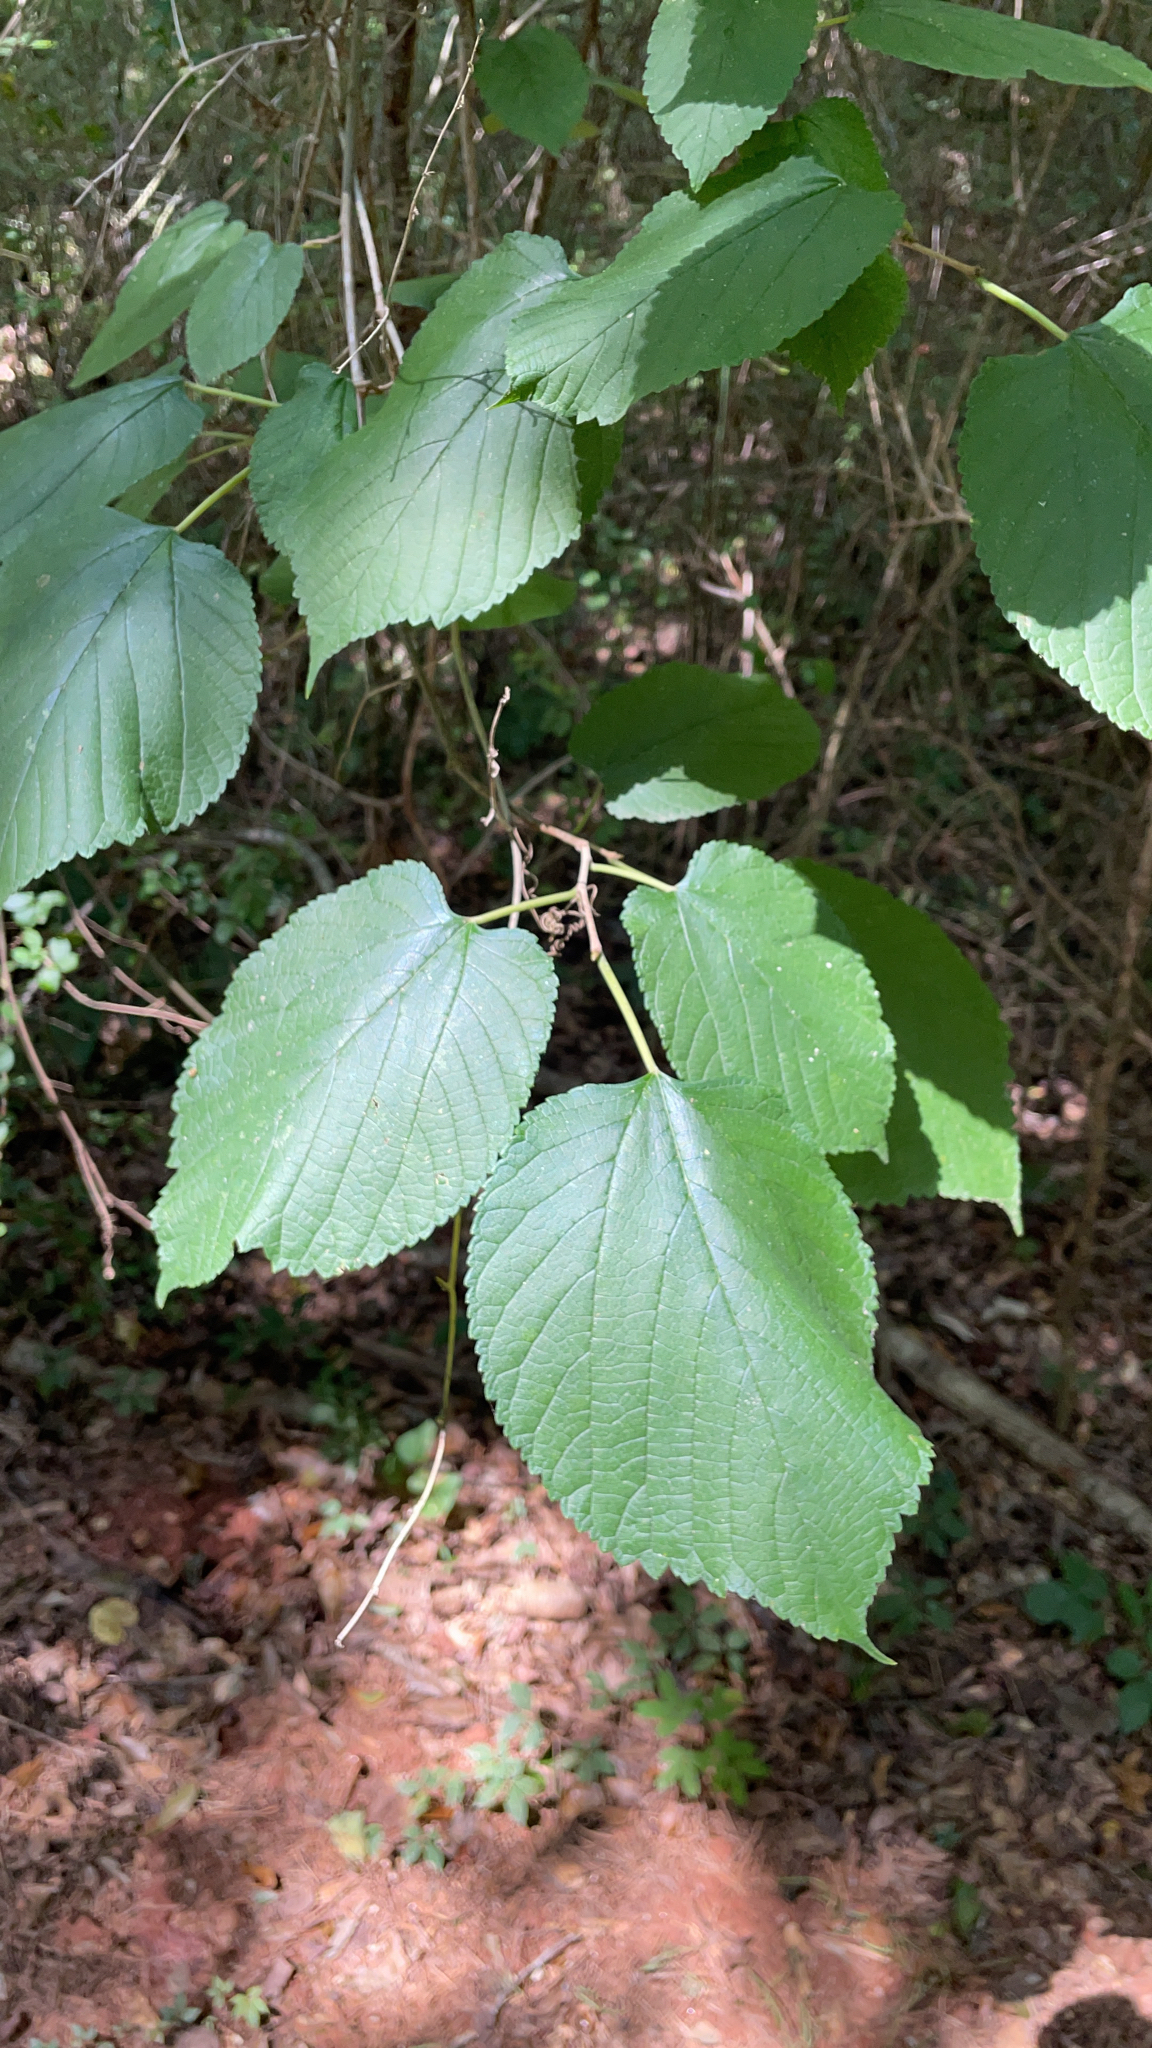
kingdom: Plantae
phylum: Tracheophyta
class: Magnoliopsida
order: Rosales
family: Moraceae
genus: Morus
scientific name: Morus rubra
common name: Red mulberry
